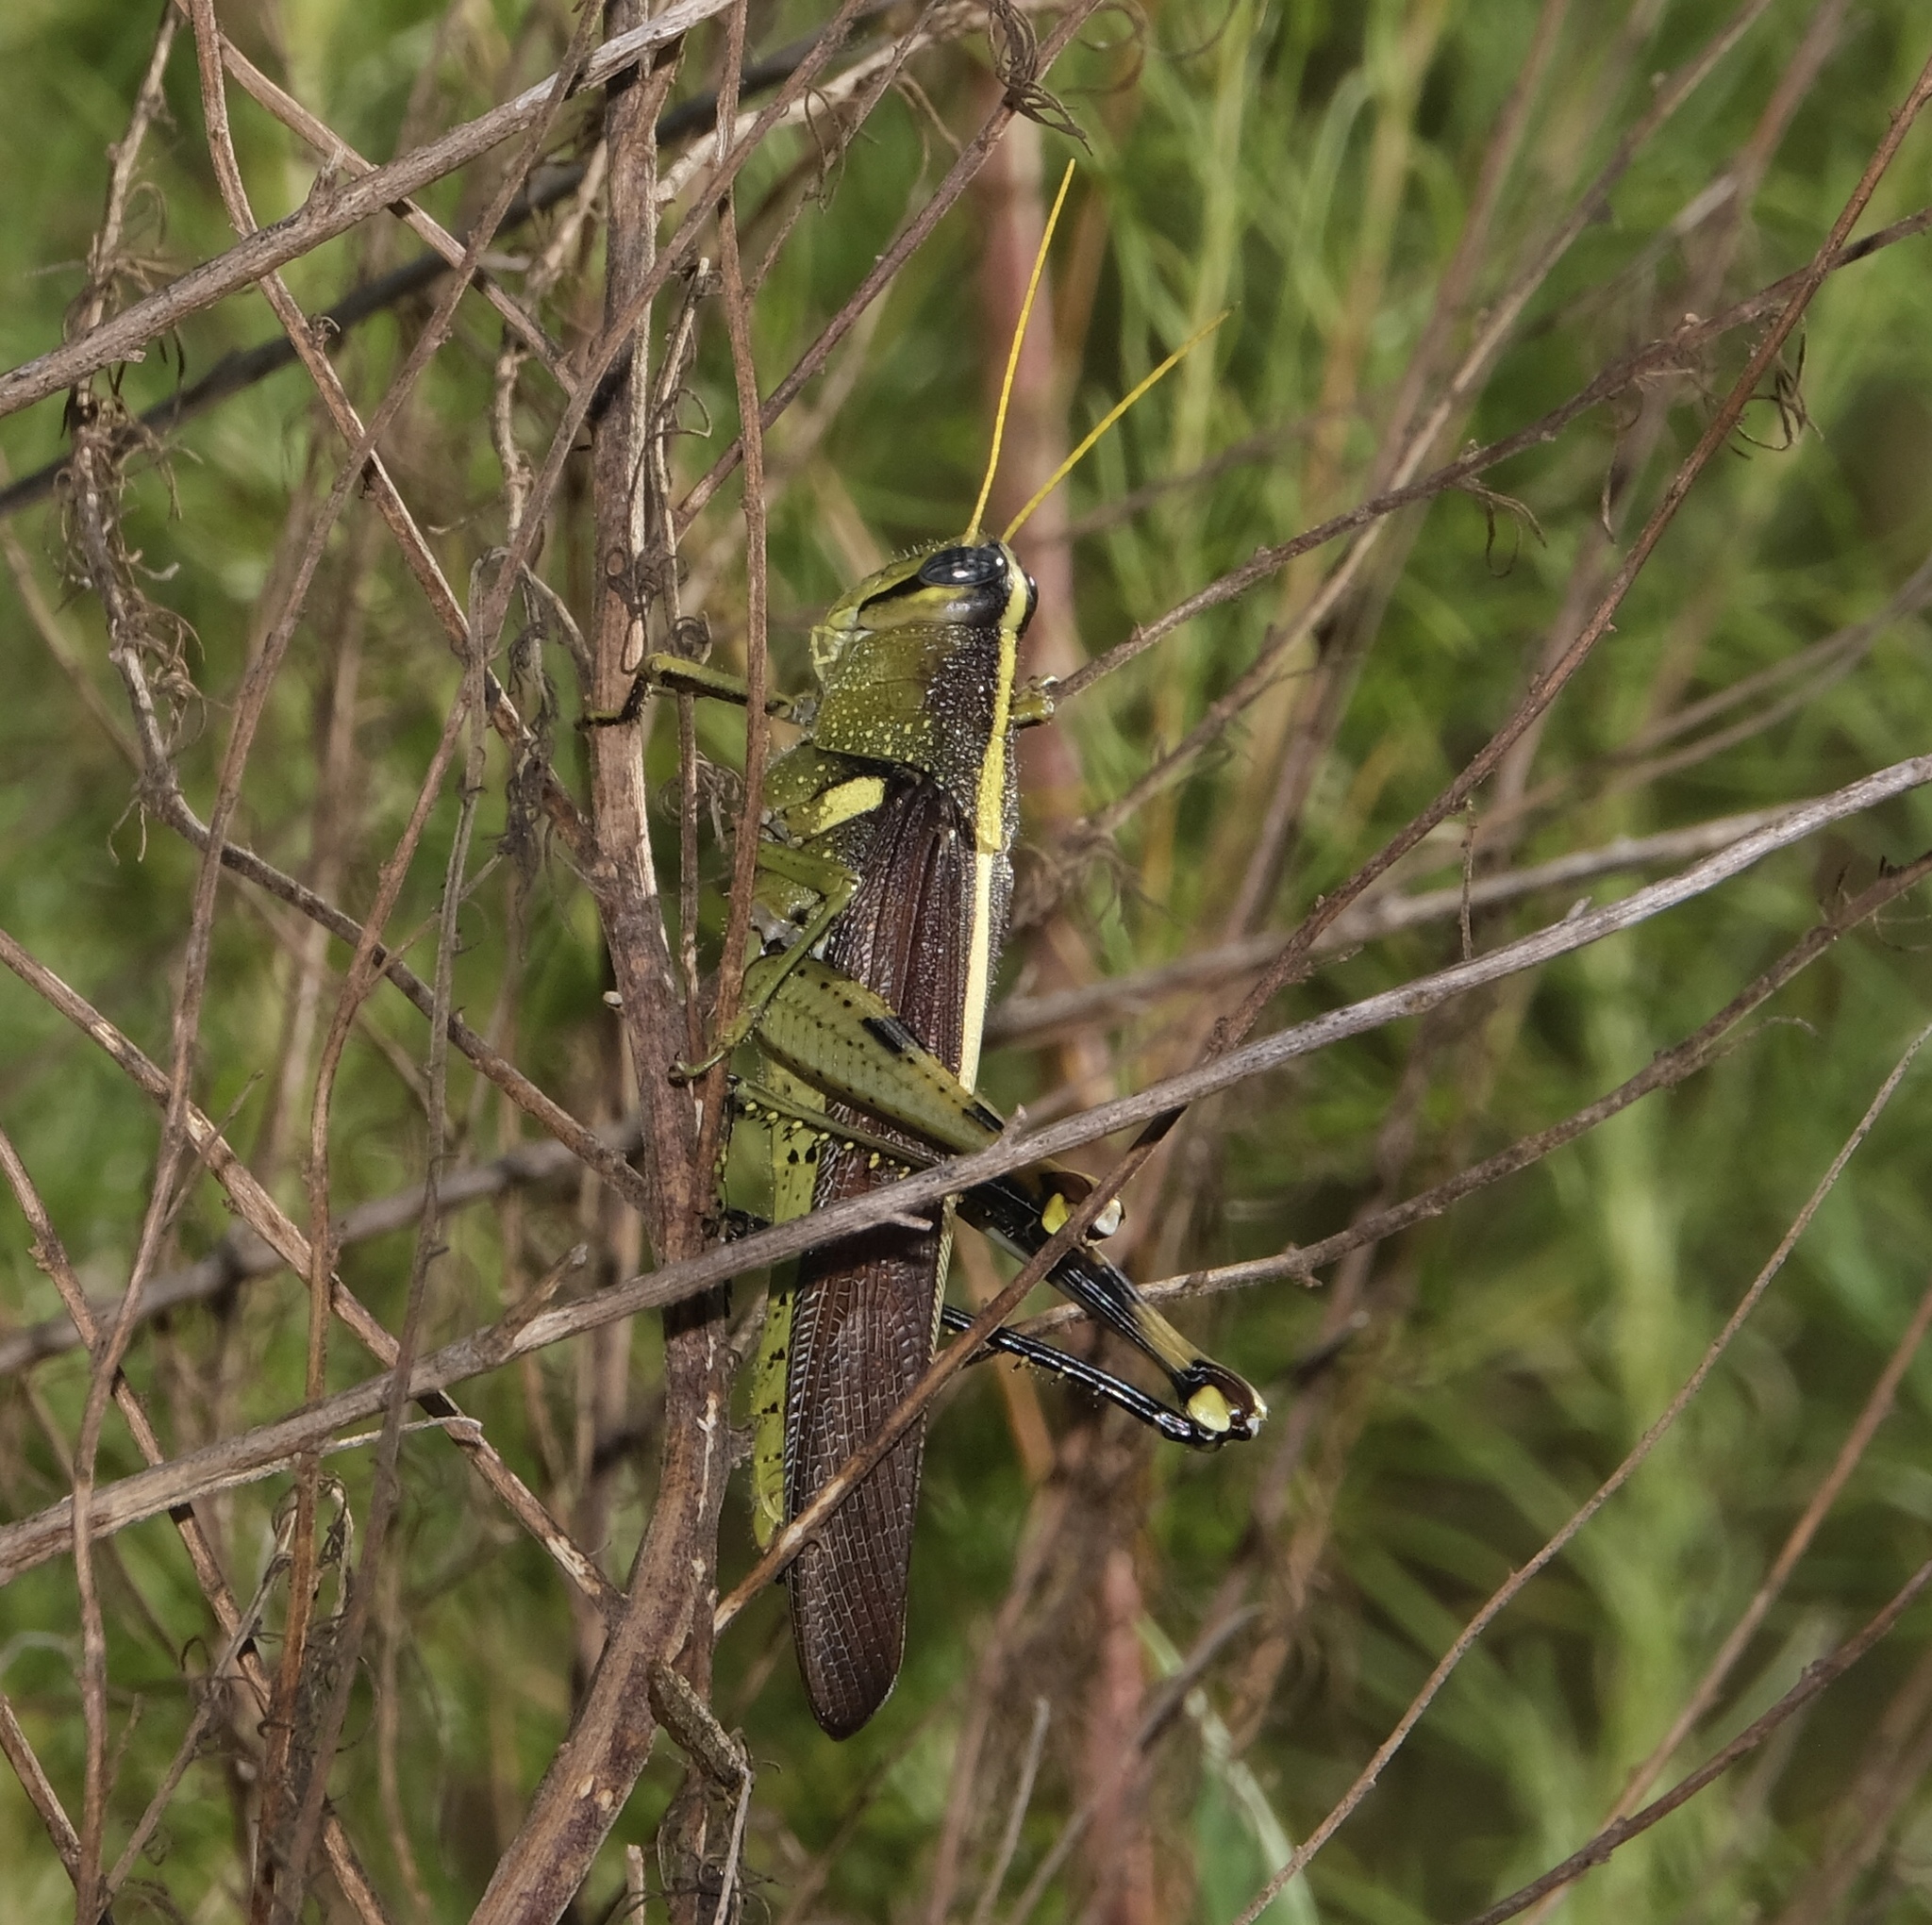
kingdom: Animalia
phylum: Arthropoda
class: Insecta
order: Orthoptera
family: Acrididae
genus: Schistocerca
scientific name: Schistocerca obscura
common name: Obscure bird grasshopper
